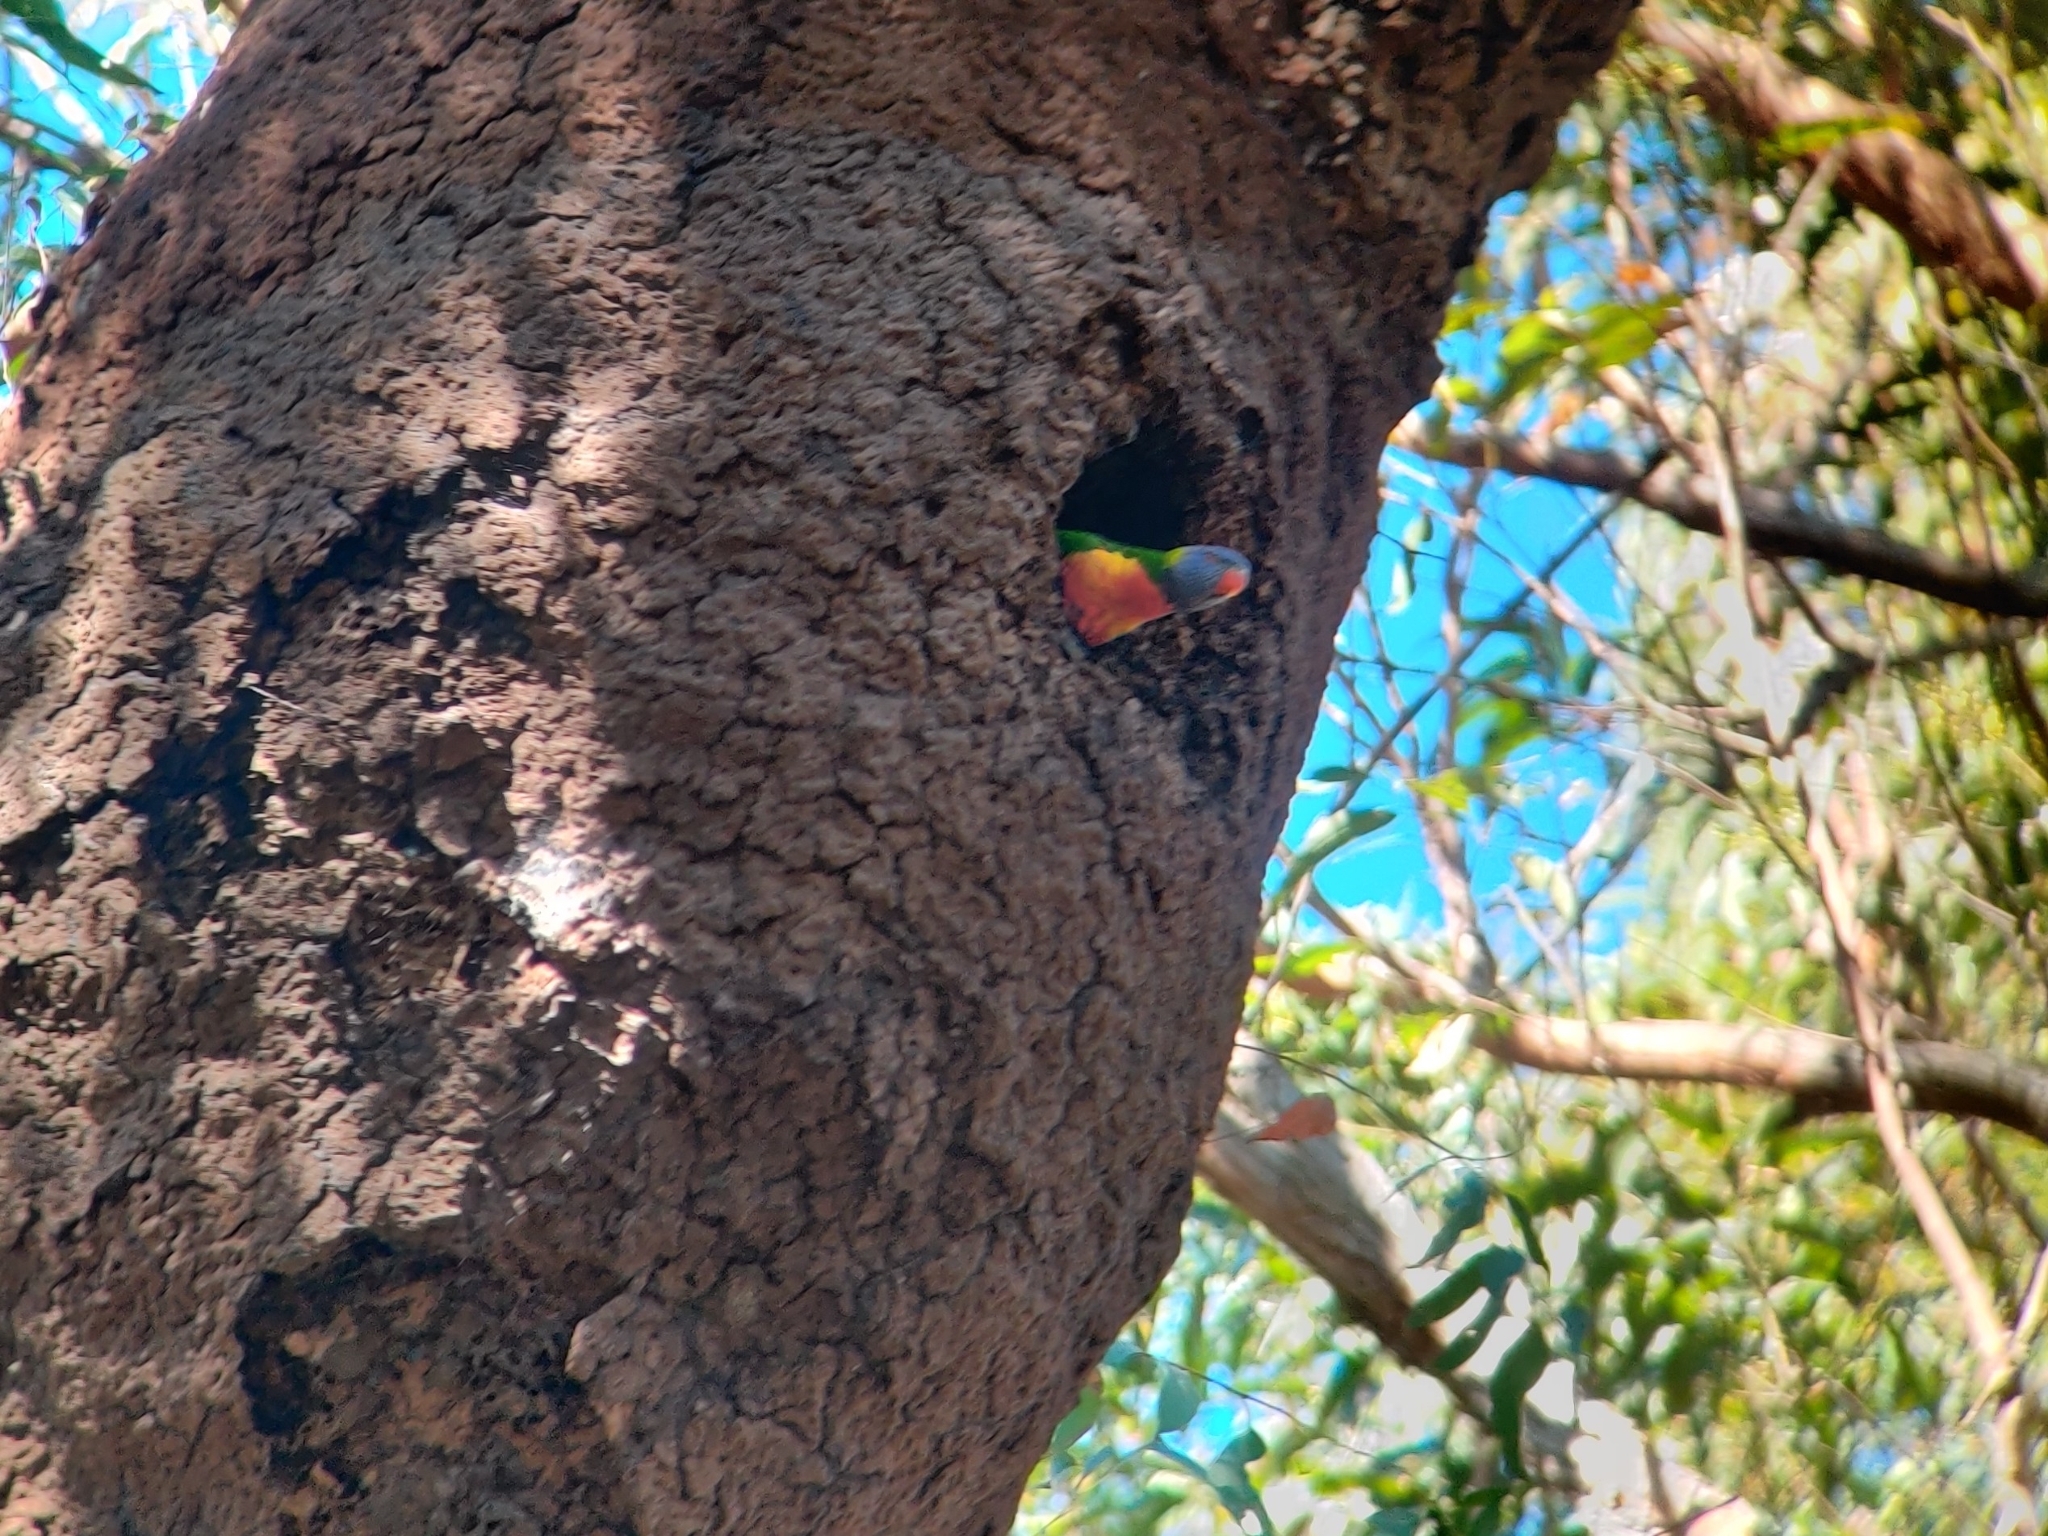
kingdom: Animalia
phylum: Chordata
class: Aves
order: Psittaciformes
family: Psittacidae
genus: Trichoglossus
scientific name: Trichoglossus haematodus
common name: Coconut lorikeet
